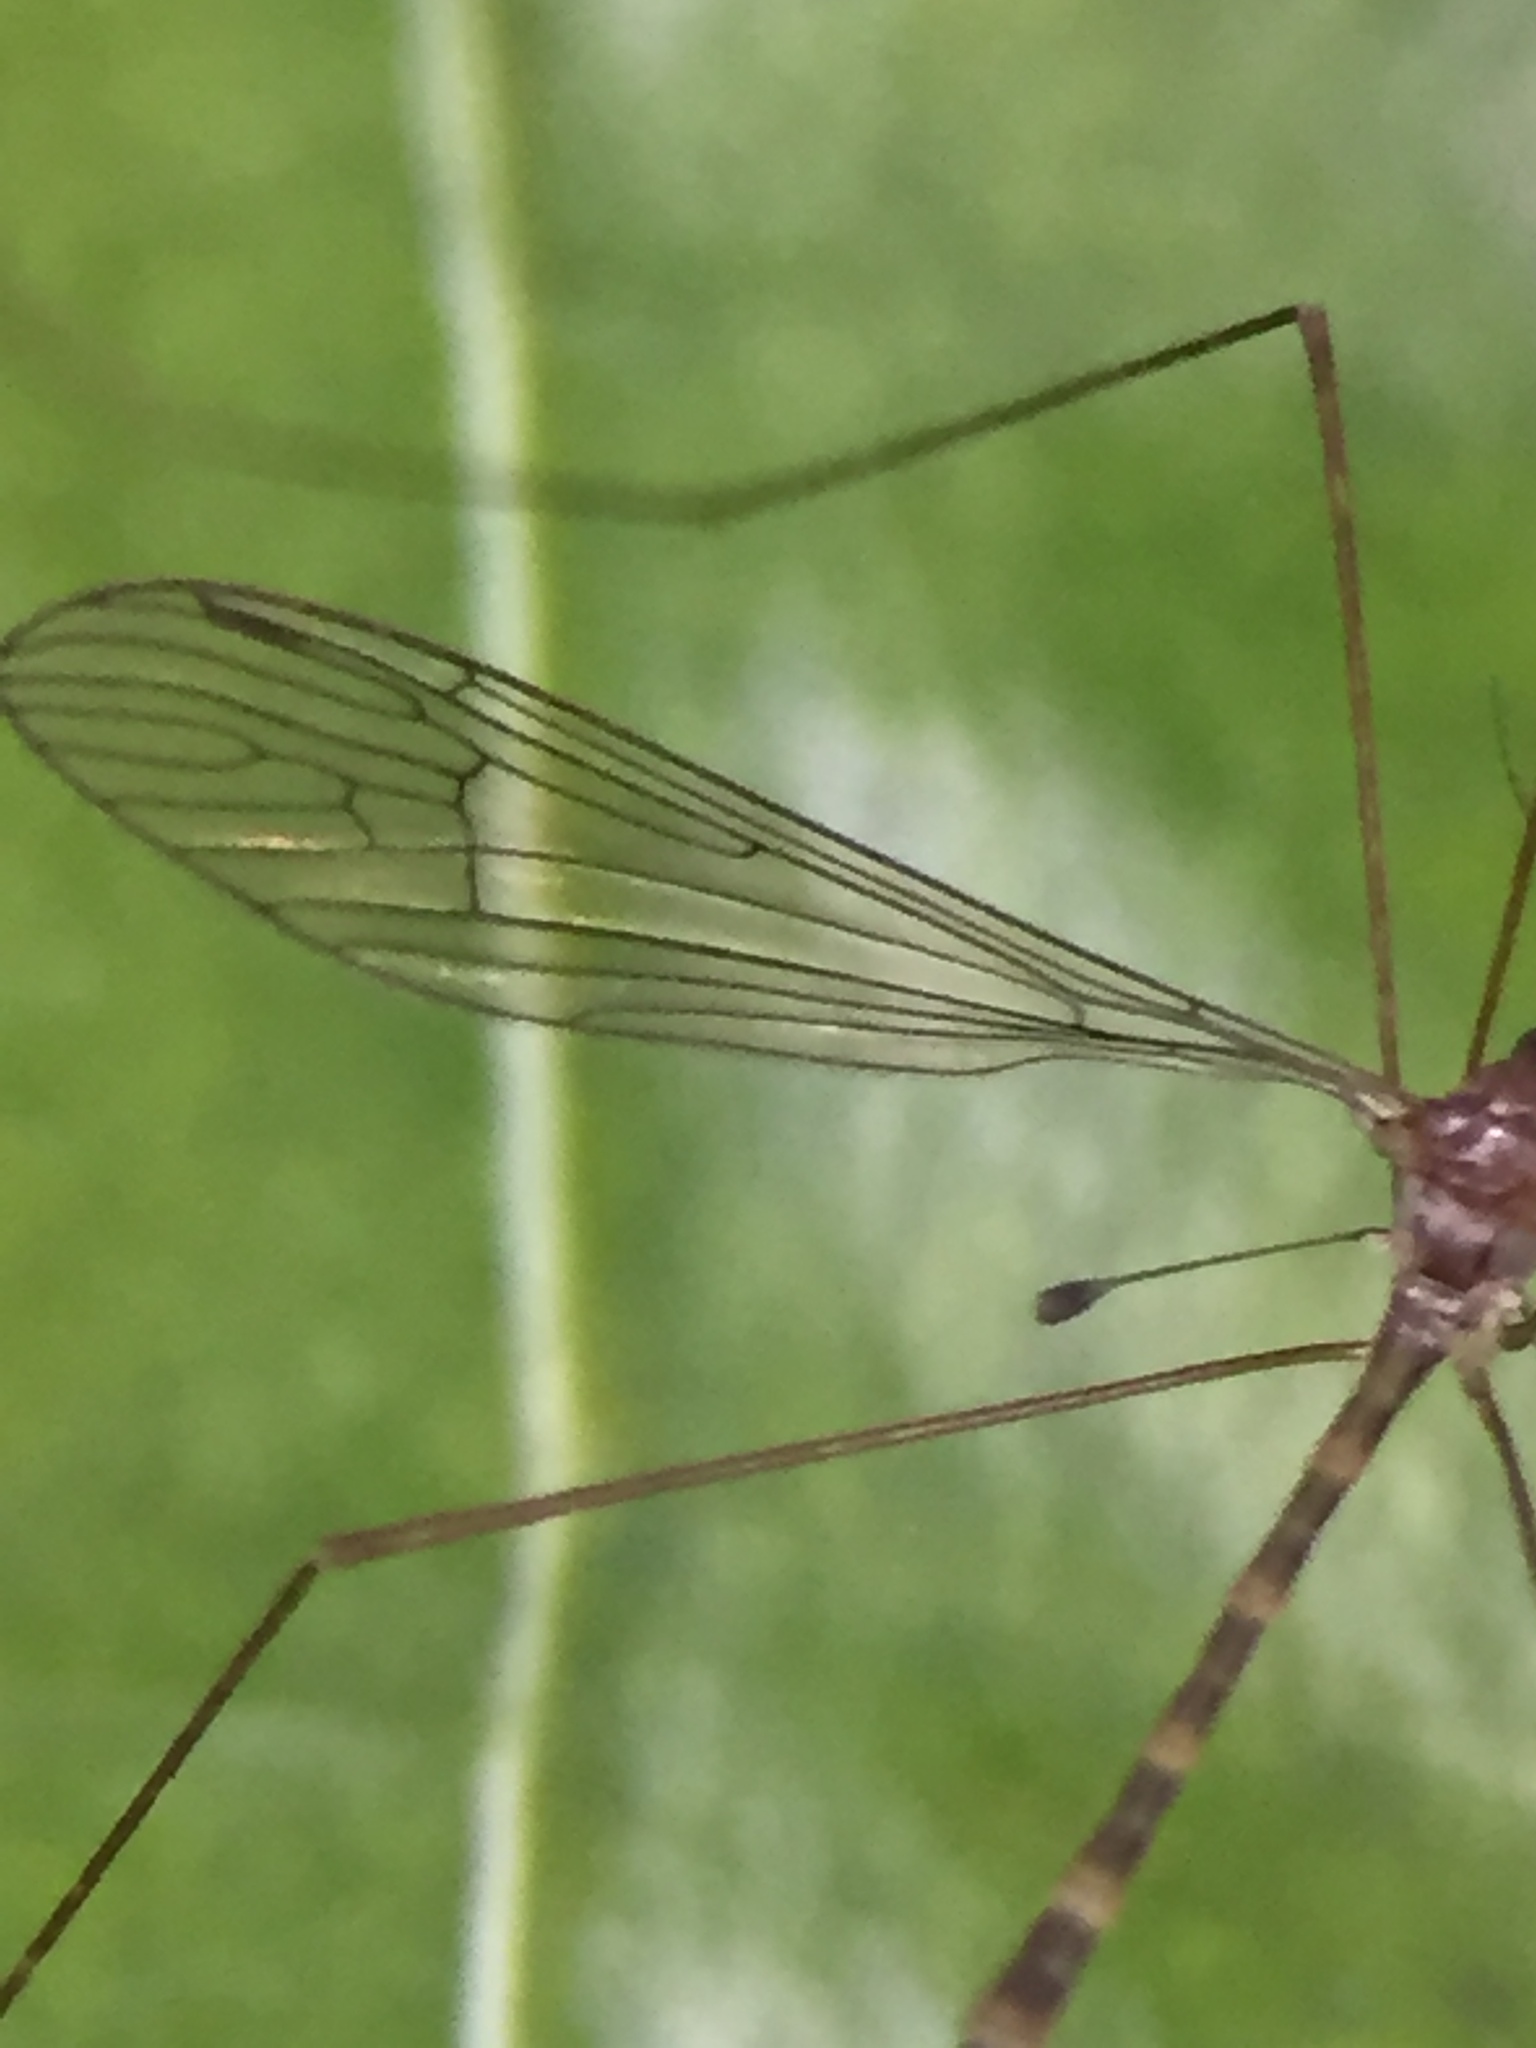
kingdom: Animalia
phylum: Arthropoda
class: Insecta
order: Diptera
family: Limoniidae
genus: Limnophilella
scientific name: Limnophilella delicatula
